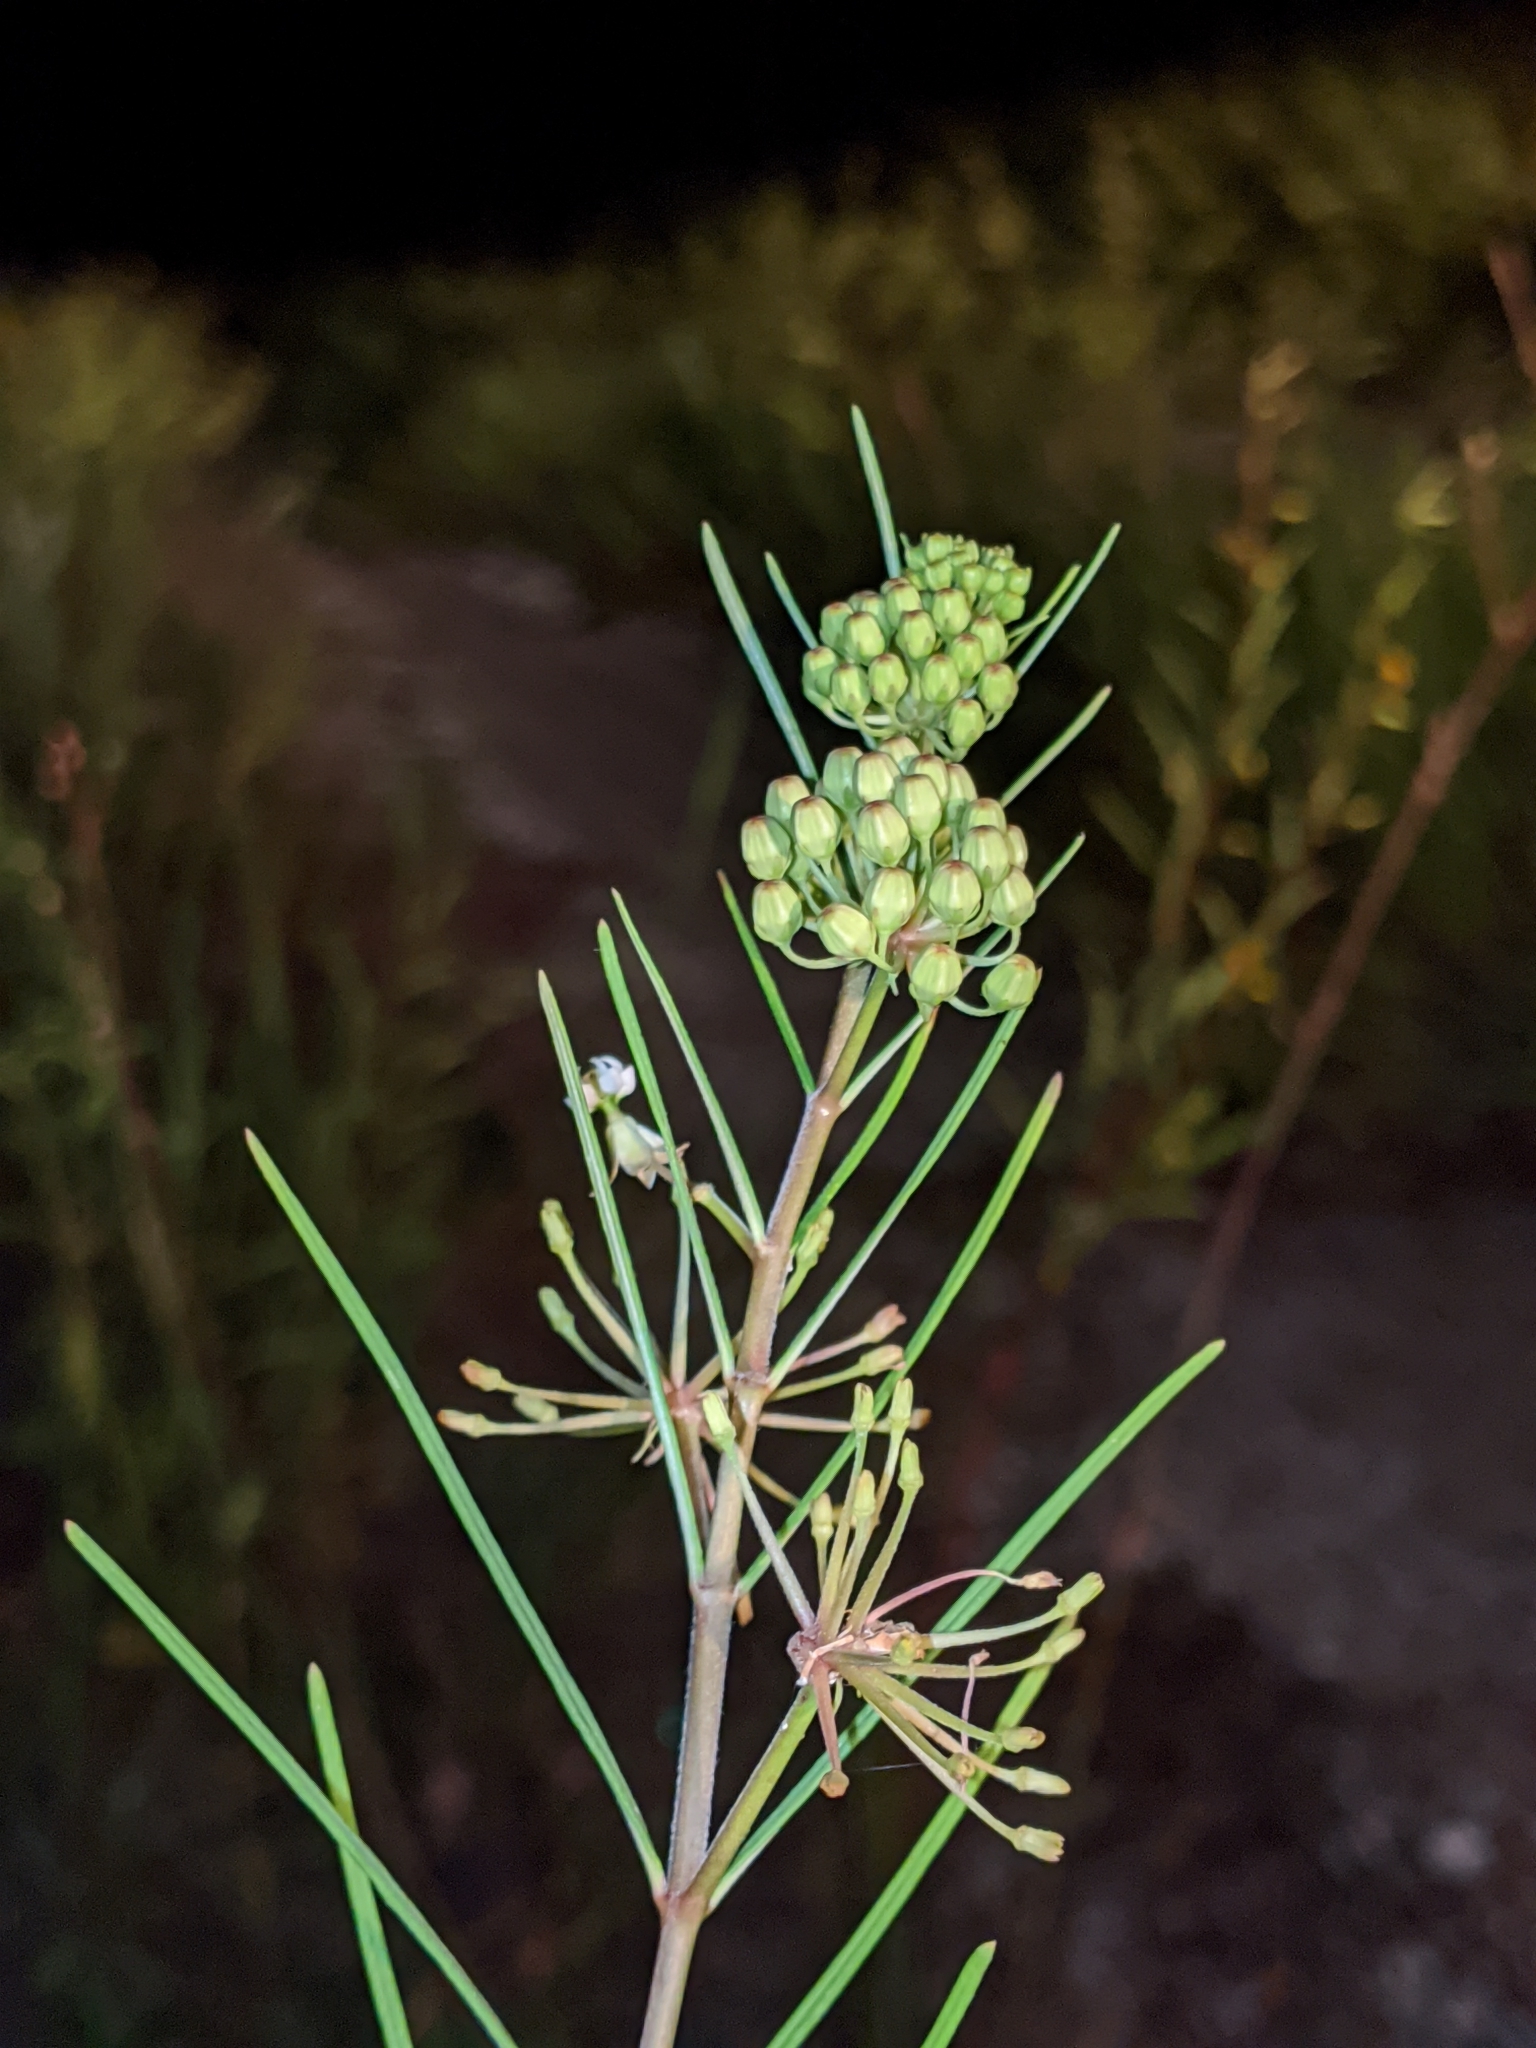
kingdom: Plantae
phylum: Tracheophyta
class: Magnoliopsida
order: Gentianales
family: Apocynaceae
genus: Asclepias
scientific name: Asclepias verticillata
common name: Eastern whorled milkweed
